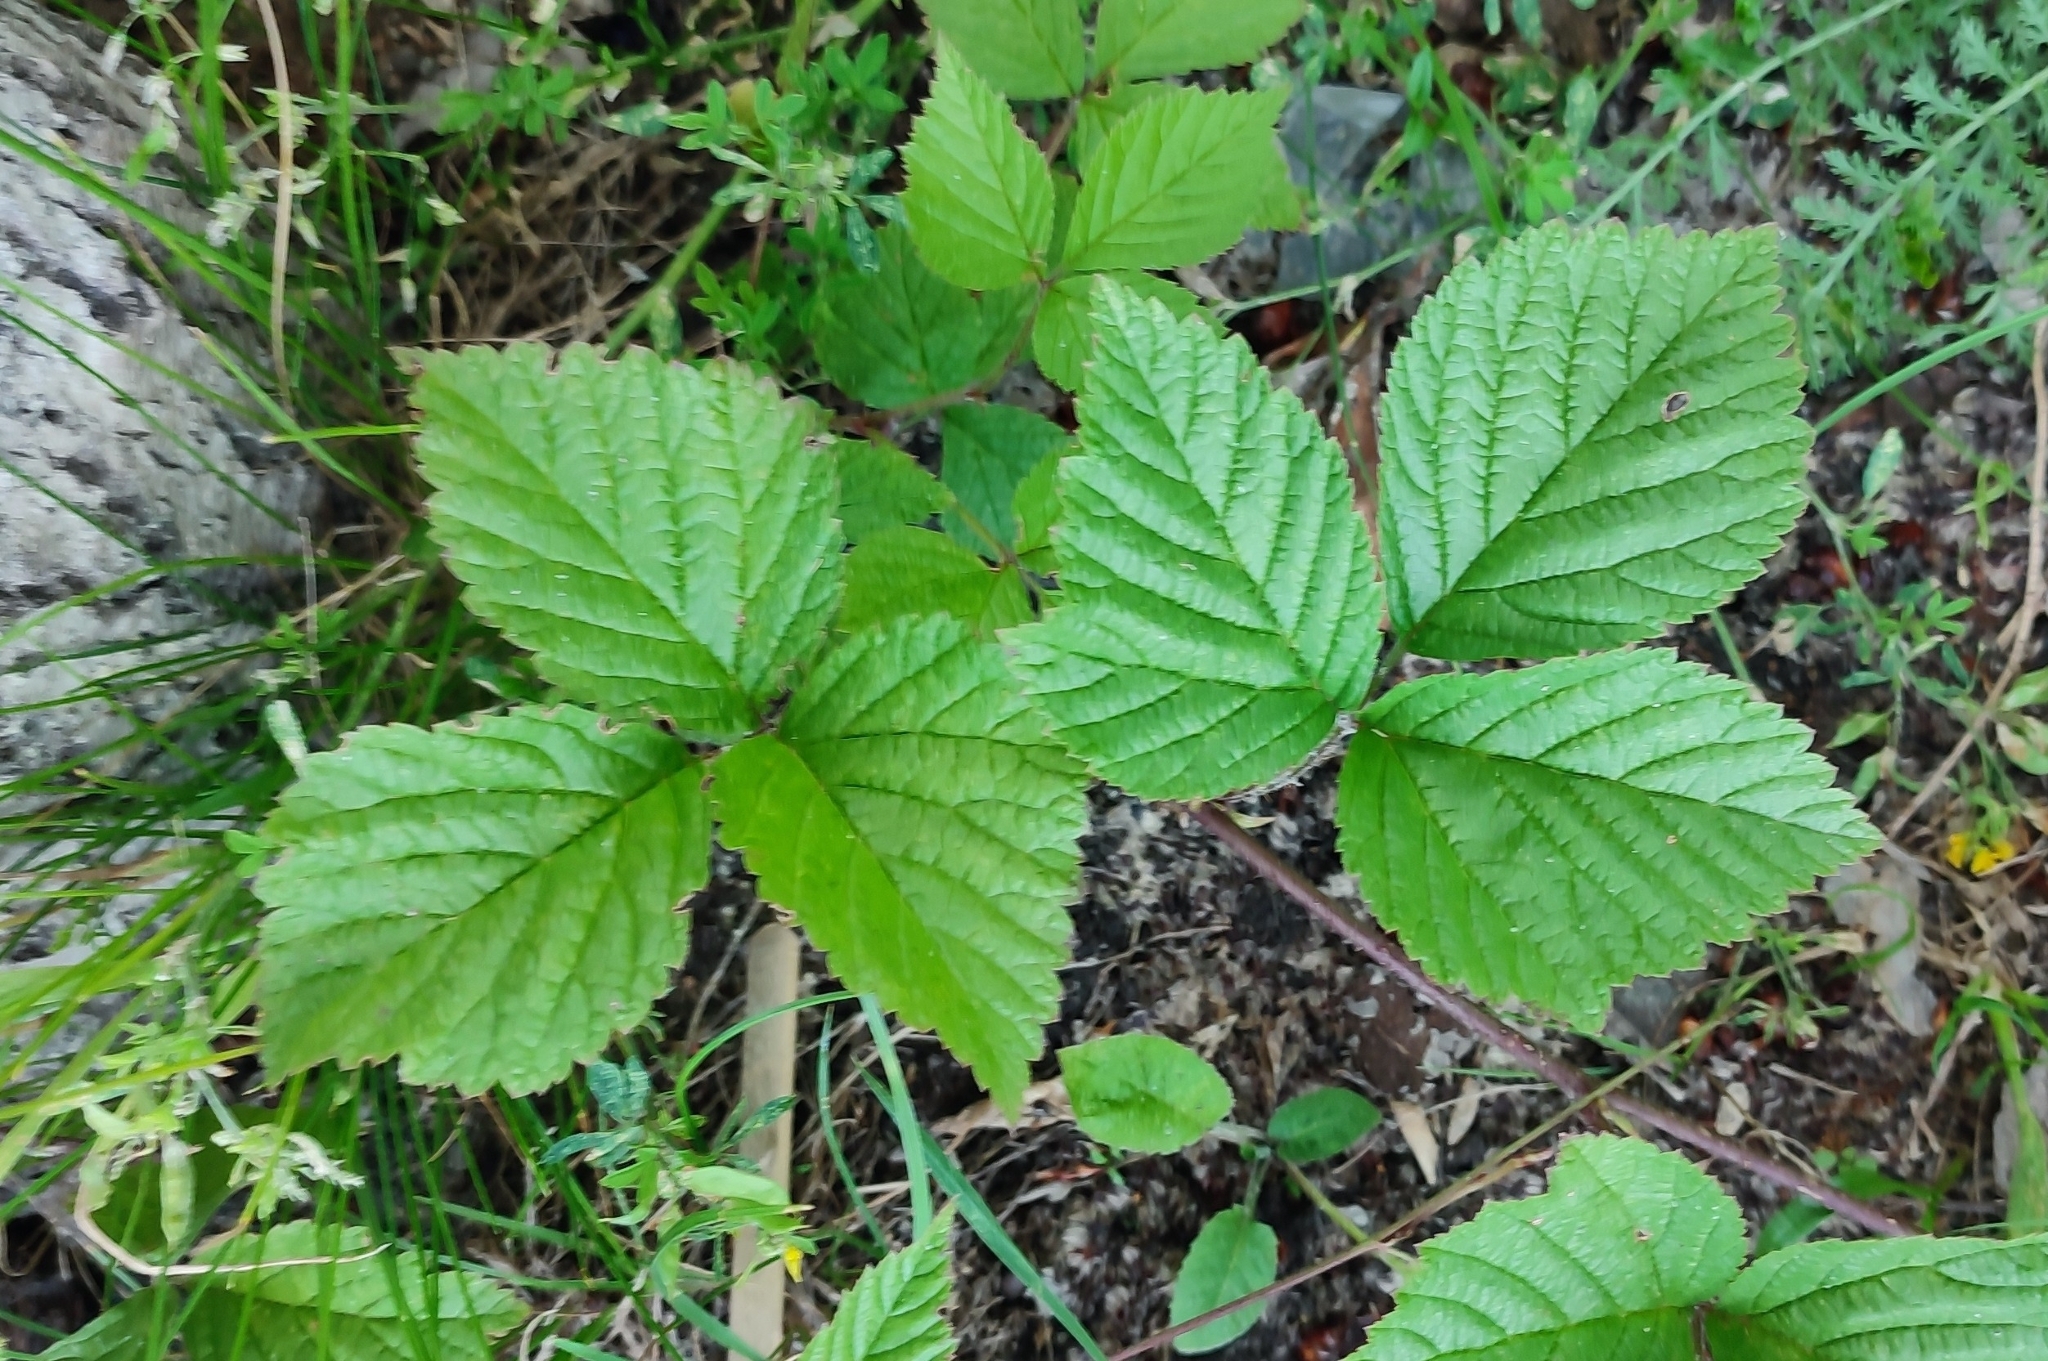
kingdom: Plantae
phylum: Tracheophyta
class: Magnoliopsida
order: Rosales
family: Rosaceae
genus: Rubus
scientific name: Rubus saxatilis
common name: Stone bramble
